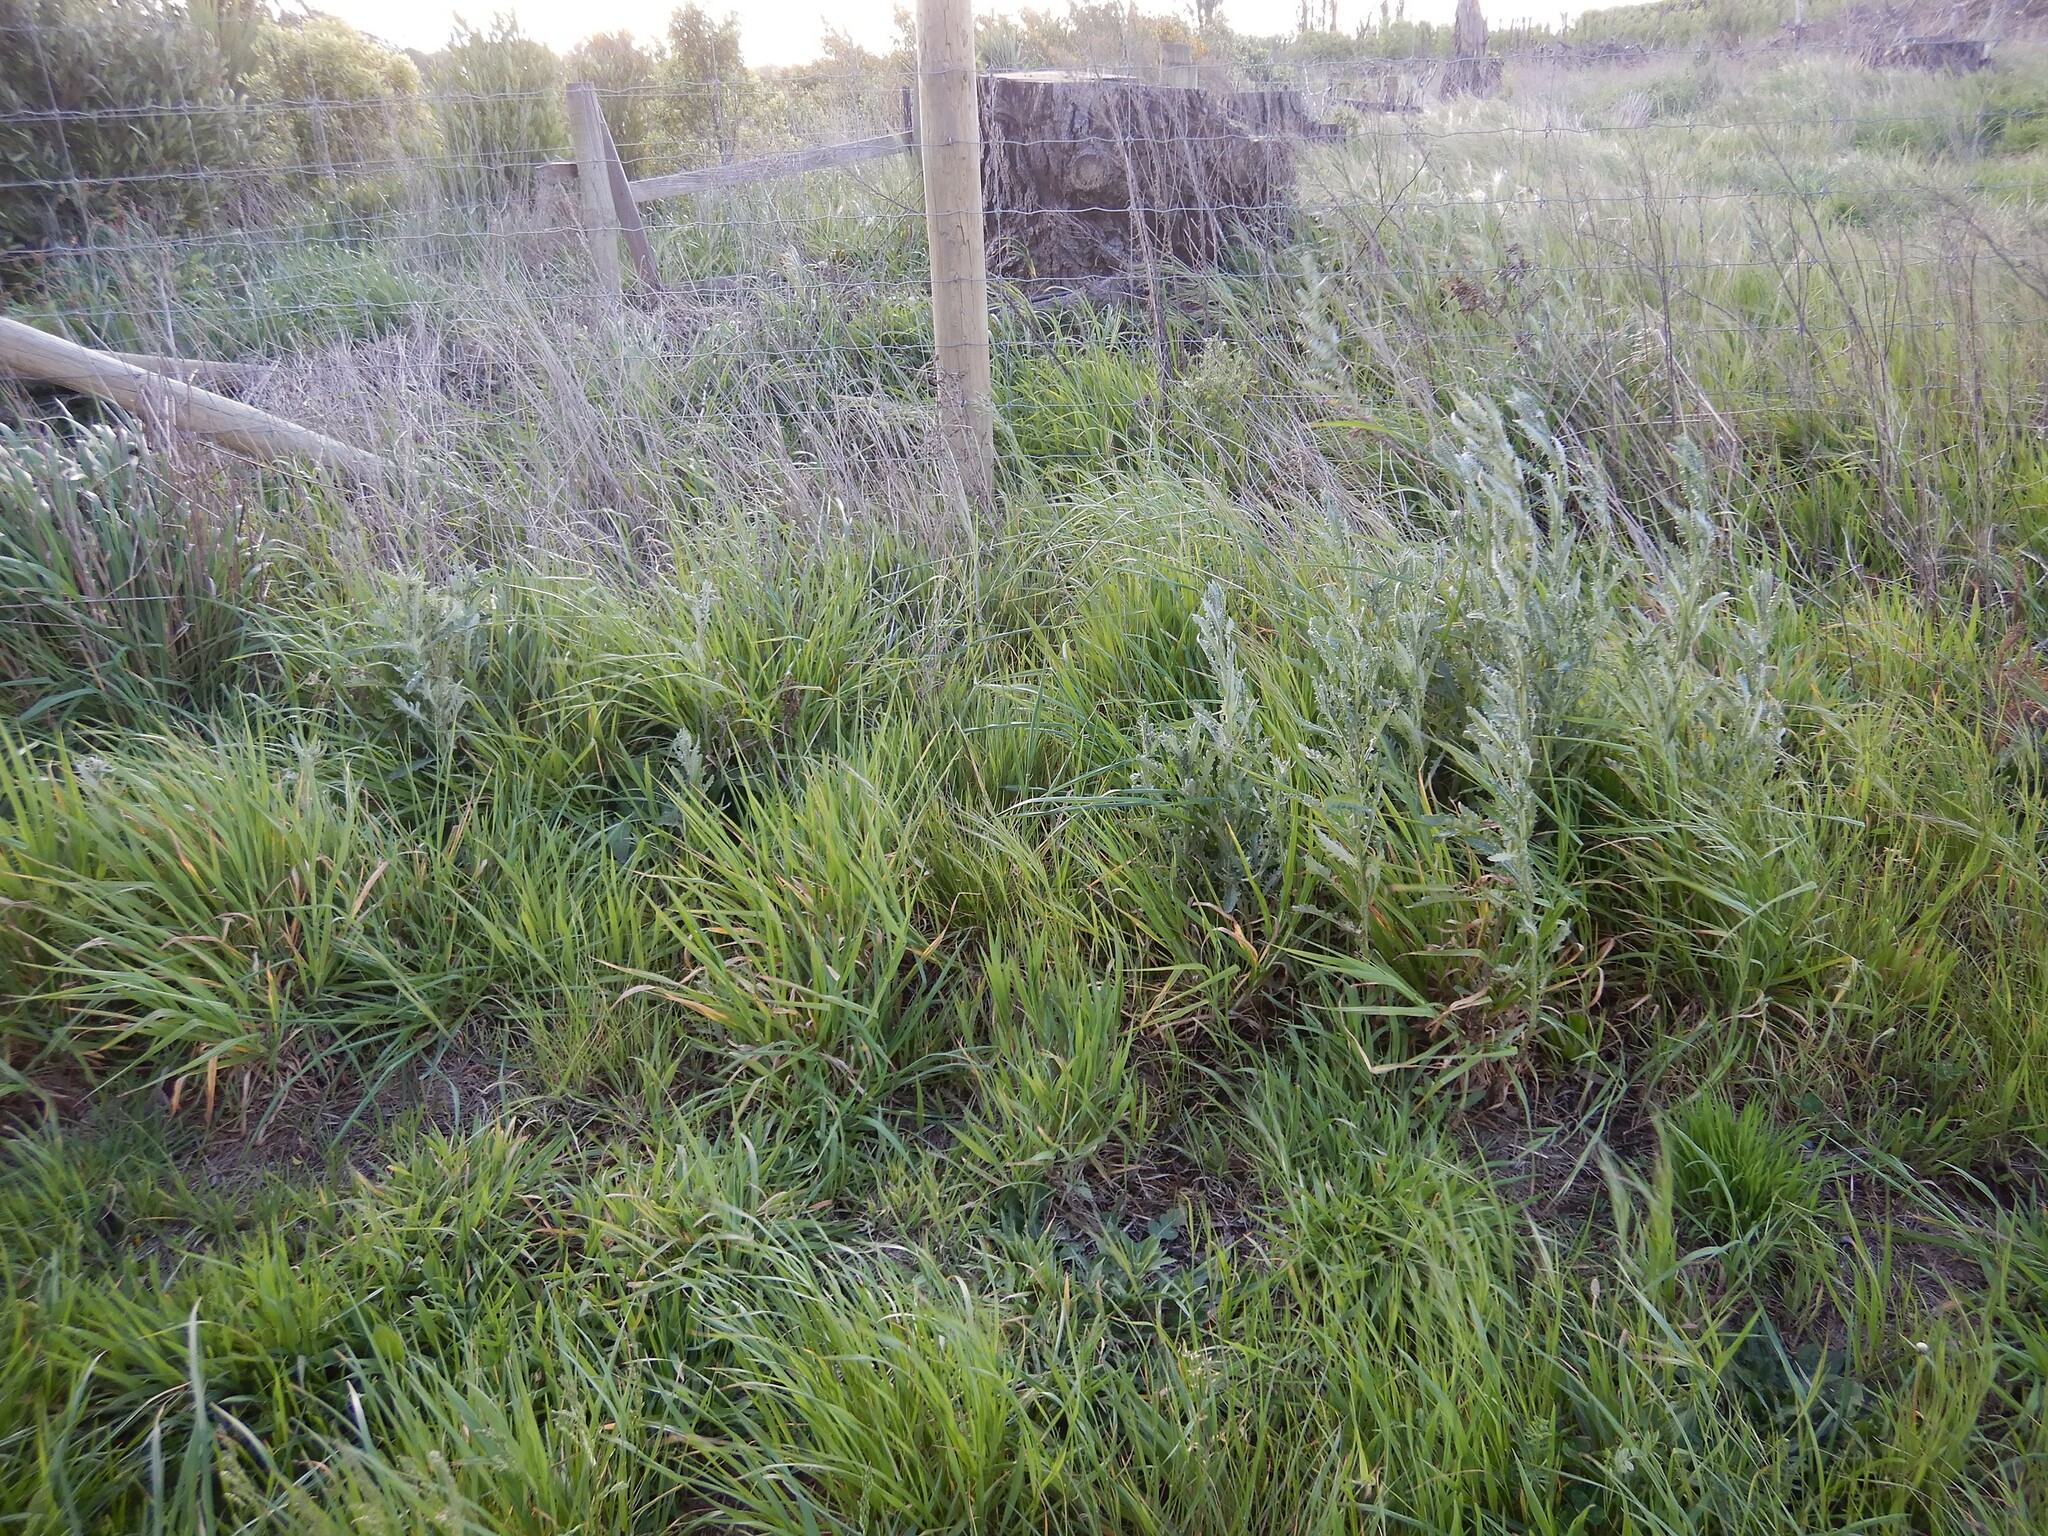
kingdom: Plantae
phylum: Tracheophyta
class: Magnoliopsida
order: Asterales
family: Asteraceae
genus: Senecio
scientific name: Senecio glomeratus
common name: Cutleaf burnweed
